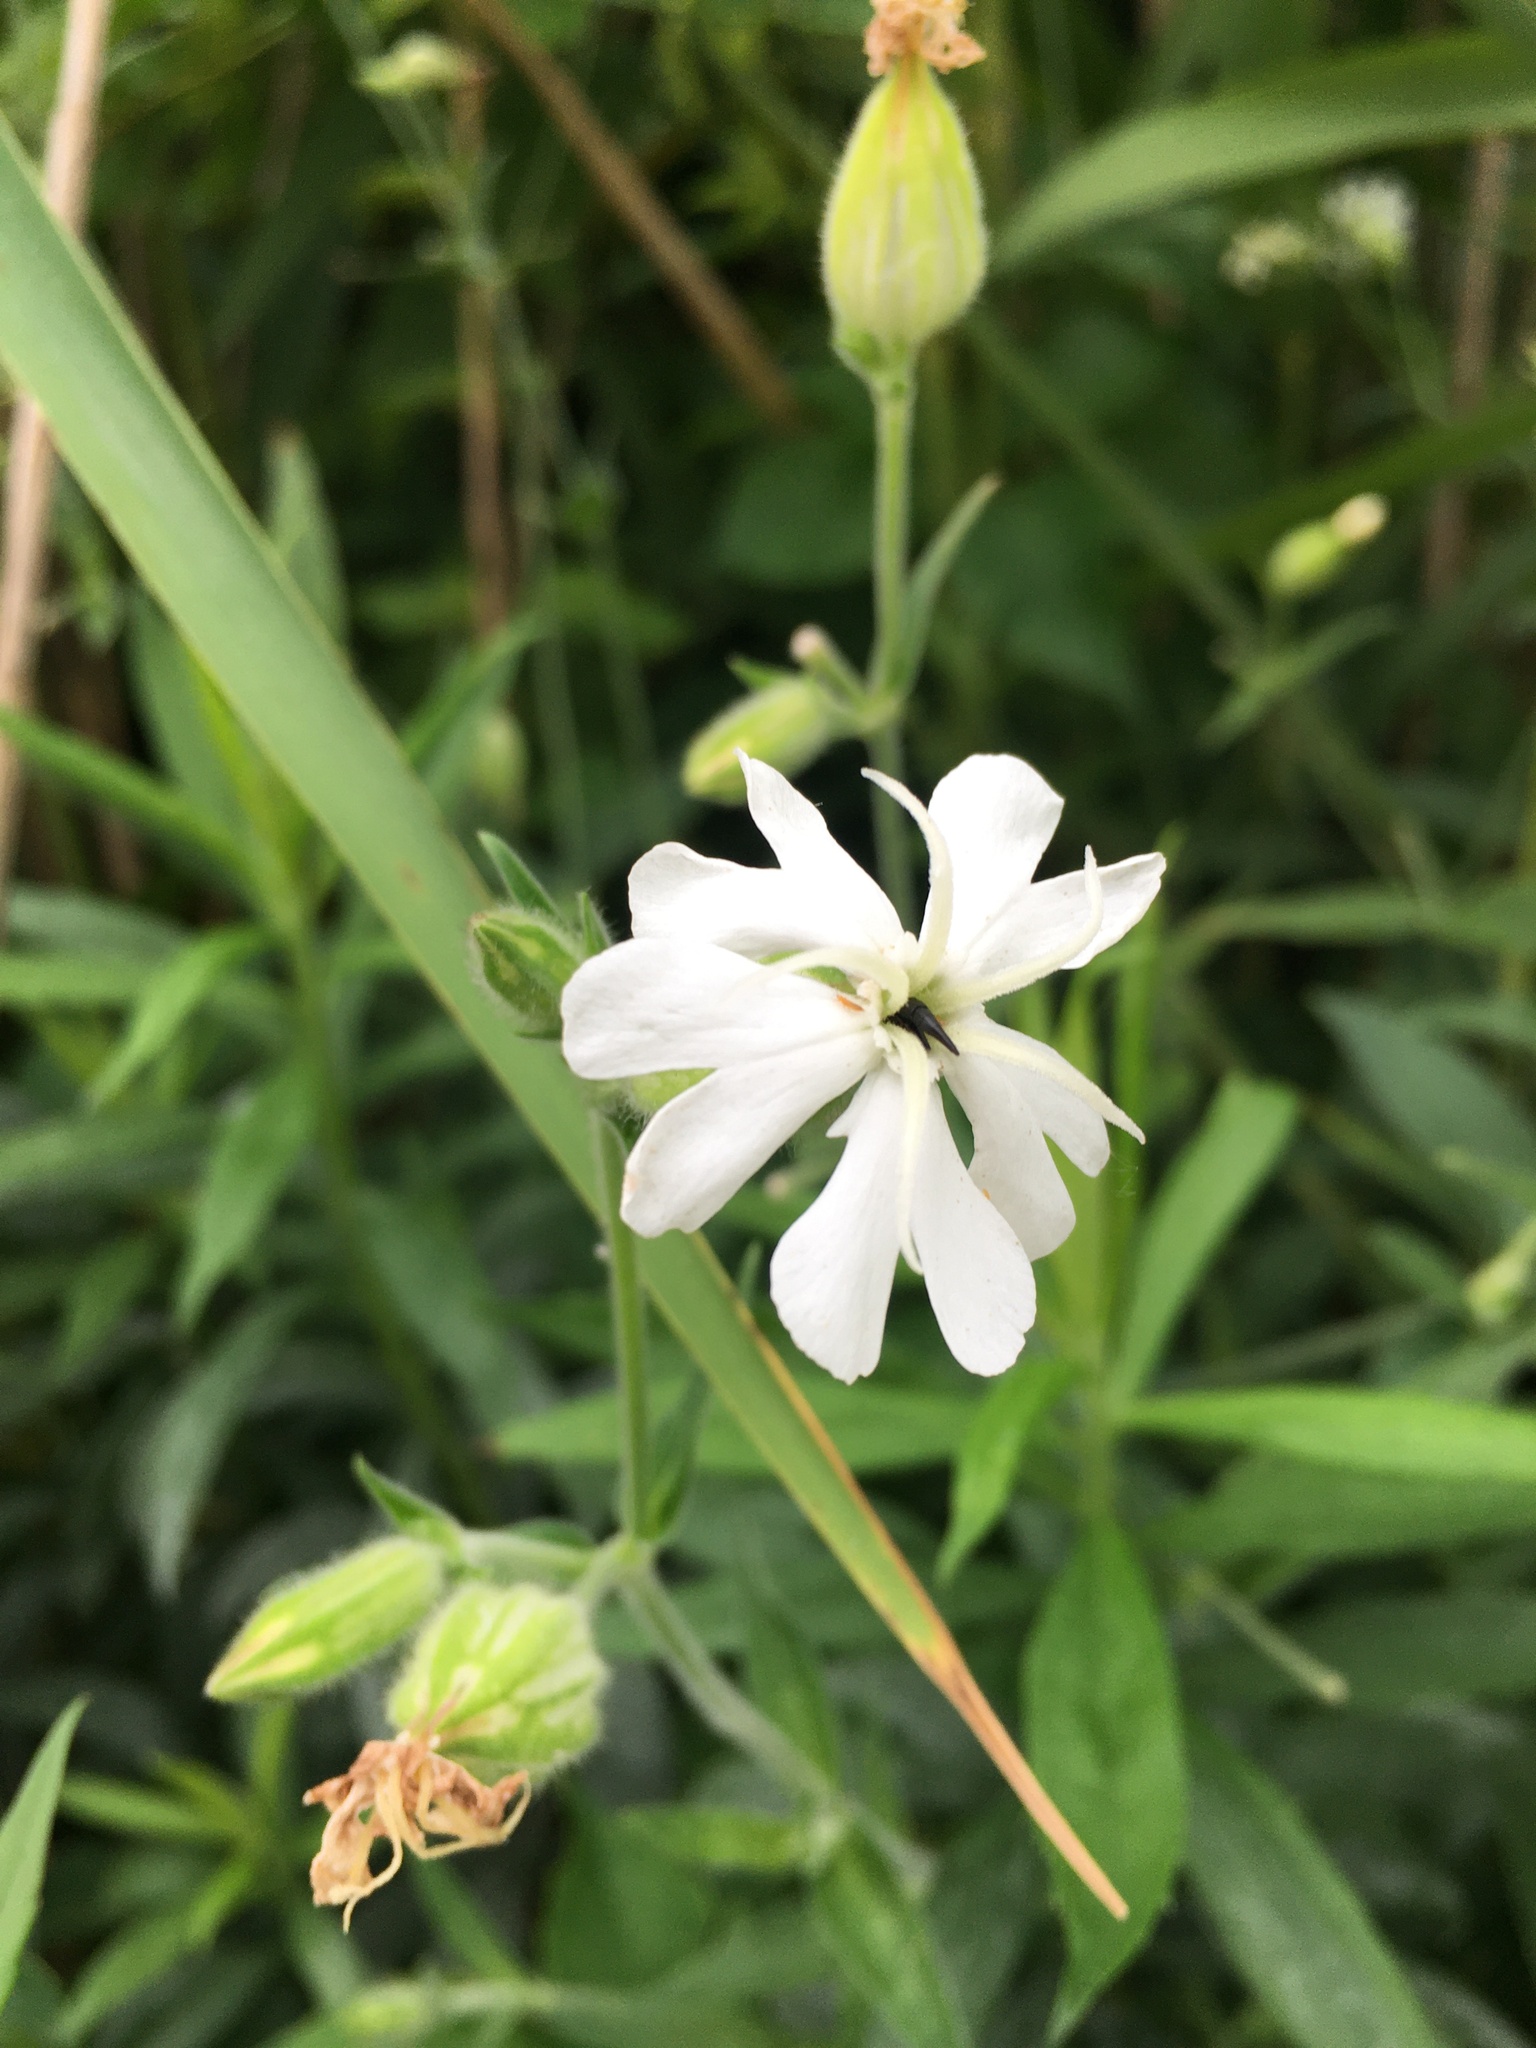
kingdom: Plantae
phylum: Tracheophyta
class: Magnoliopsida
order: Caryophyllales
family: Caryophyllaceae
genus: Silene
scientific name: Silene latifolia
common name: White campion
